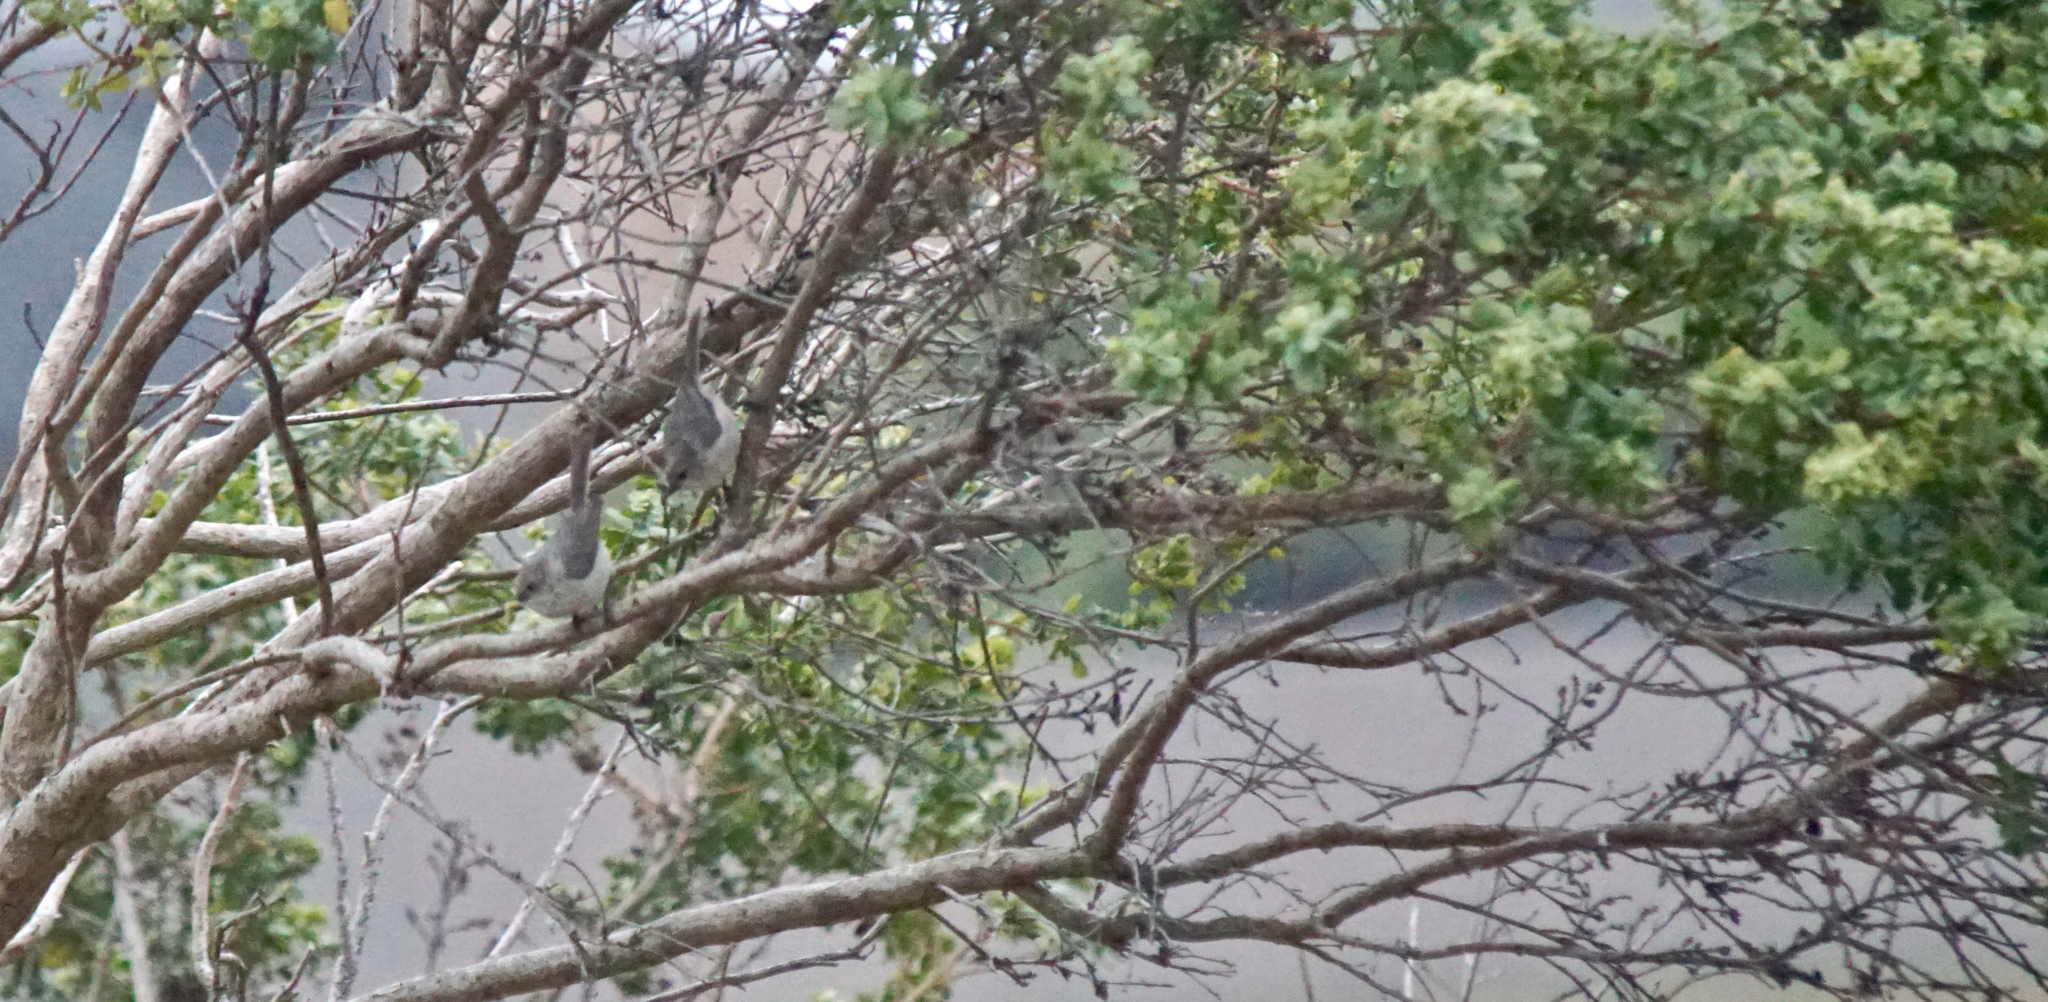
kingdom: Animalia
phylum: Chordata
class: Aves
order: Passeriformes
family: Aegithalidae
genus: Psaltriparus
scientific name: Psaltriparus minimus
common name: American bushtit
